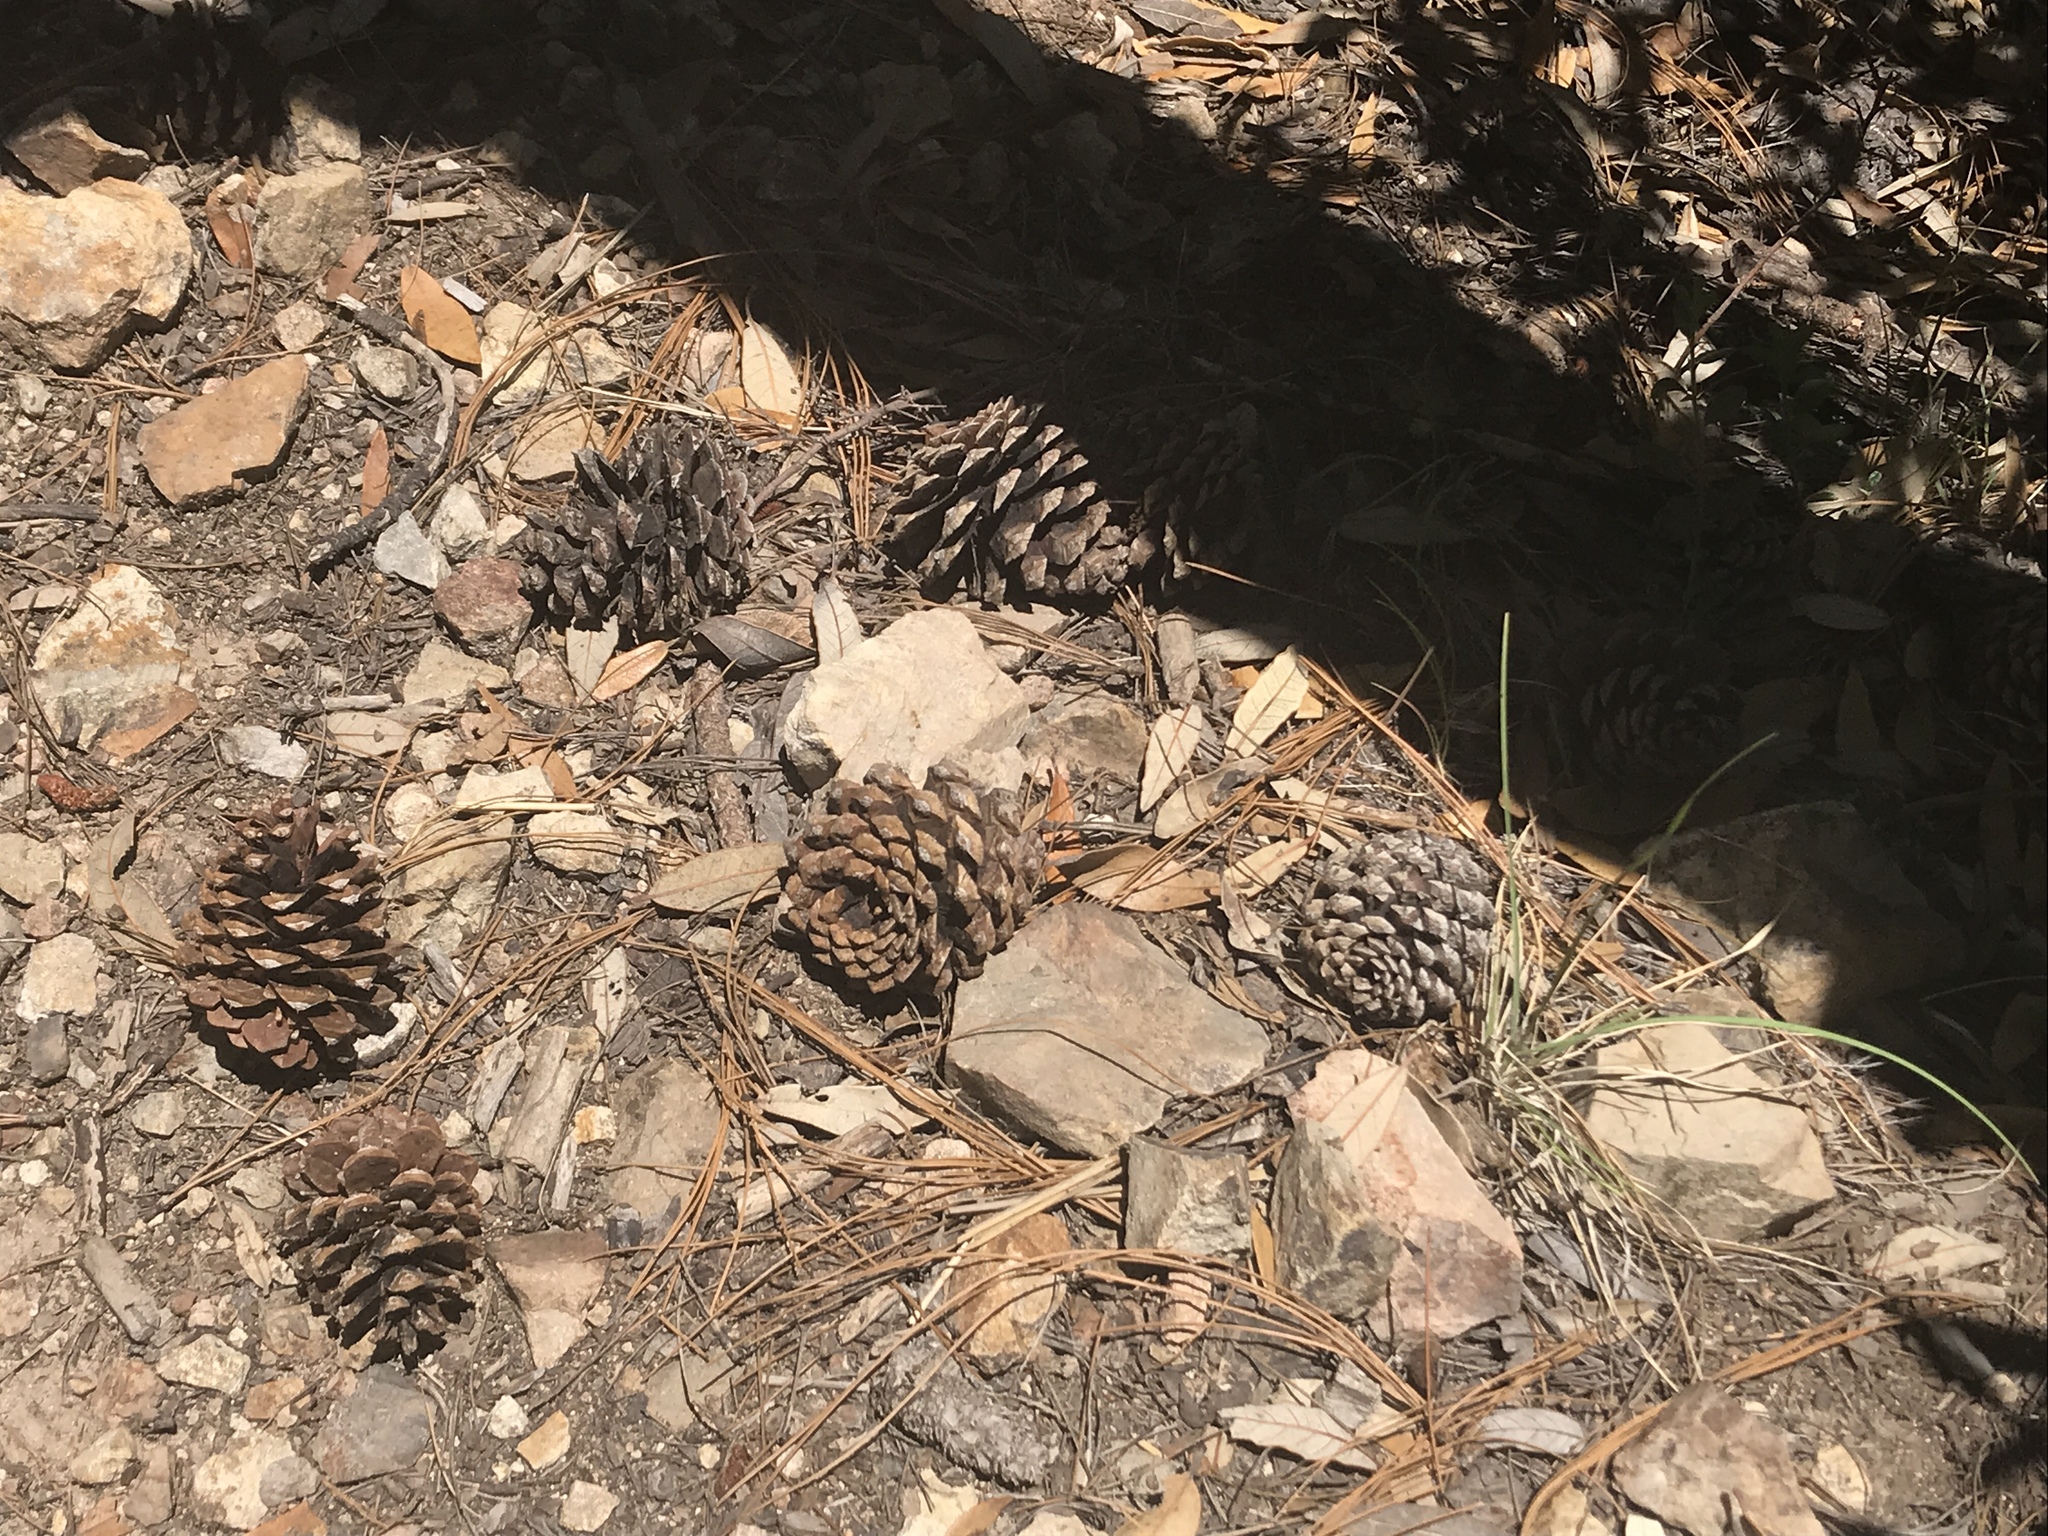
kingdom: Plantae
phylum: Tracheophyta
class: Pinopsida
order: Pinales
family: Pinaceae
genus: Pinus
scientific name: Pinus arizonica
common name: Arizona pine
